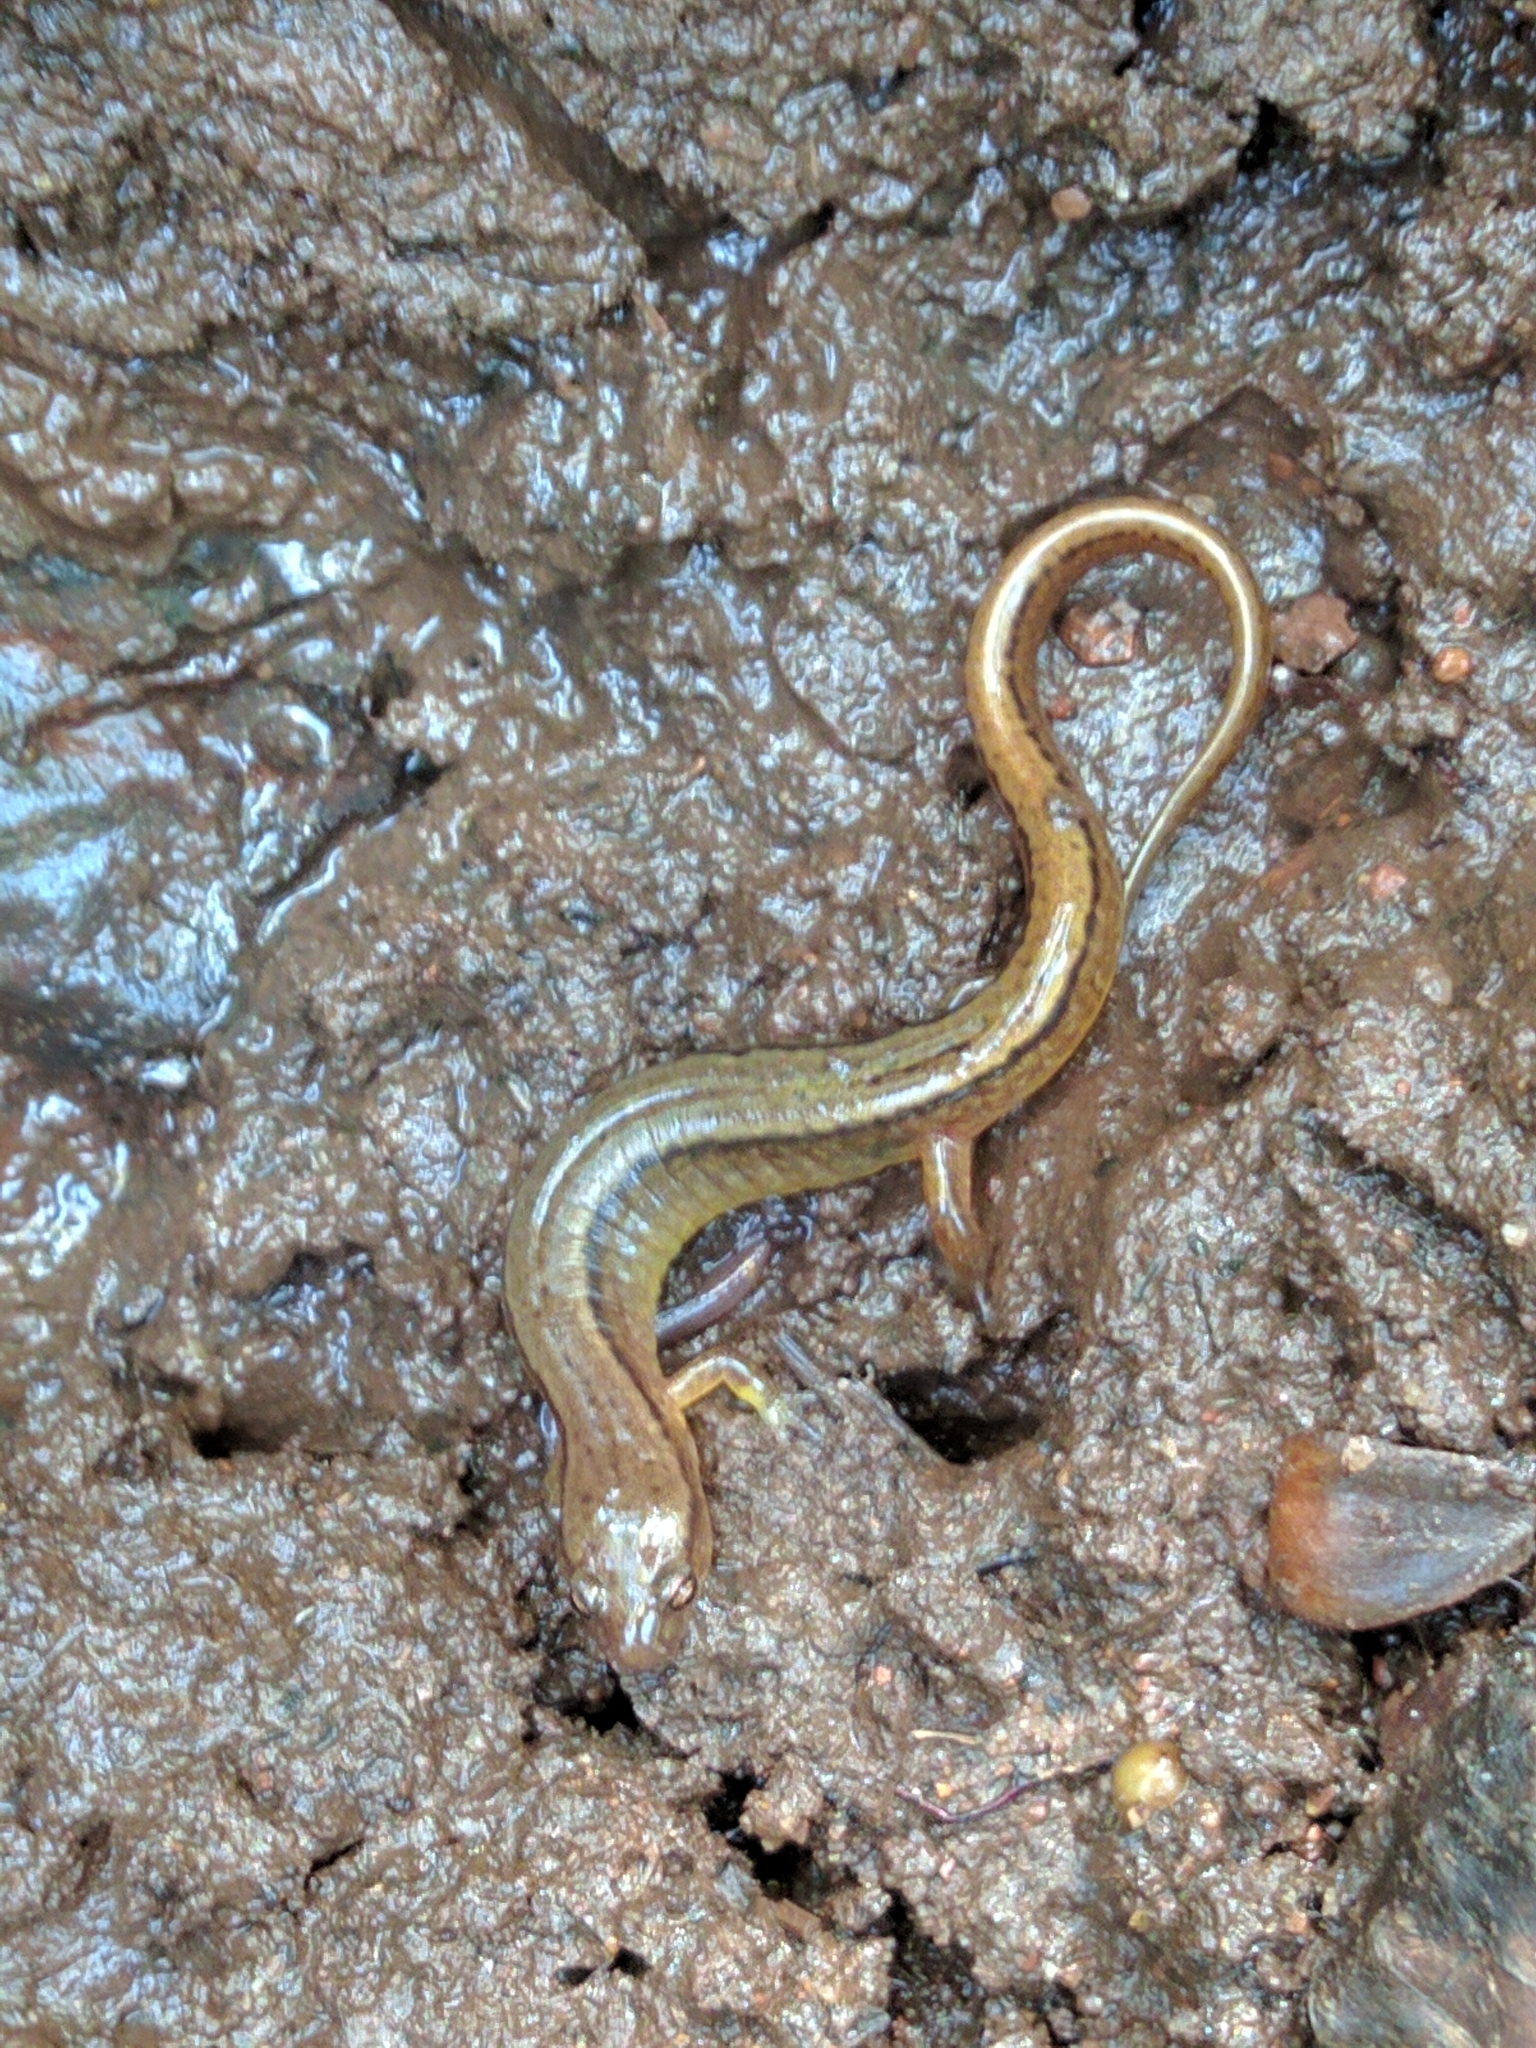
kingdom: Animalia
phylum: Chordata
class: Amphibia
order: Caudata
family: Plethodontidae
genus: Eurycea
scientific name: Eurycea bislineata
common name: Northern two-lined salamander
